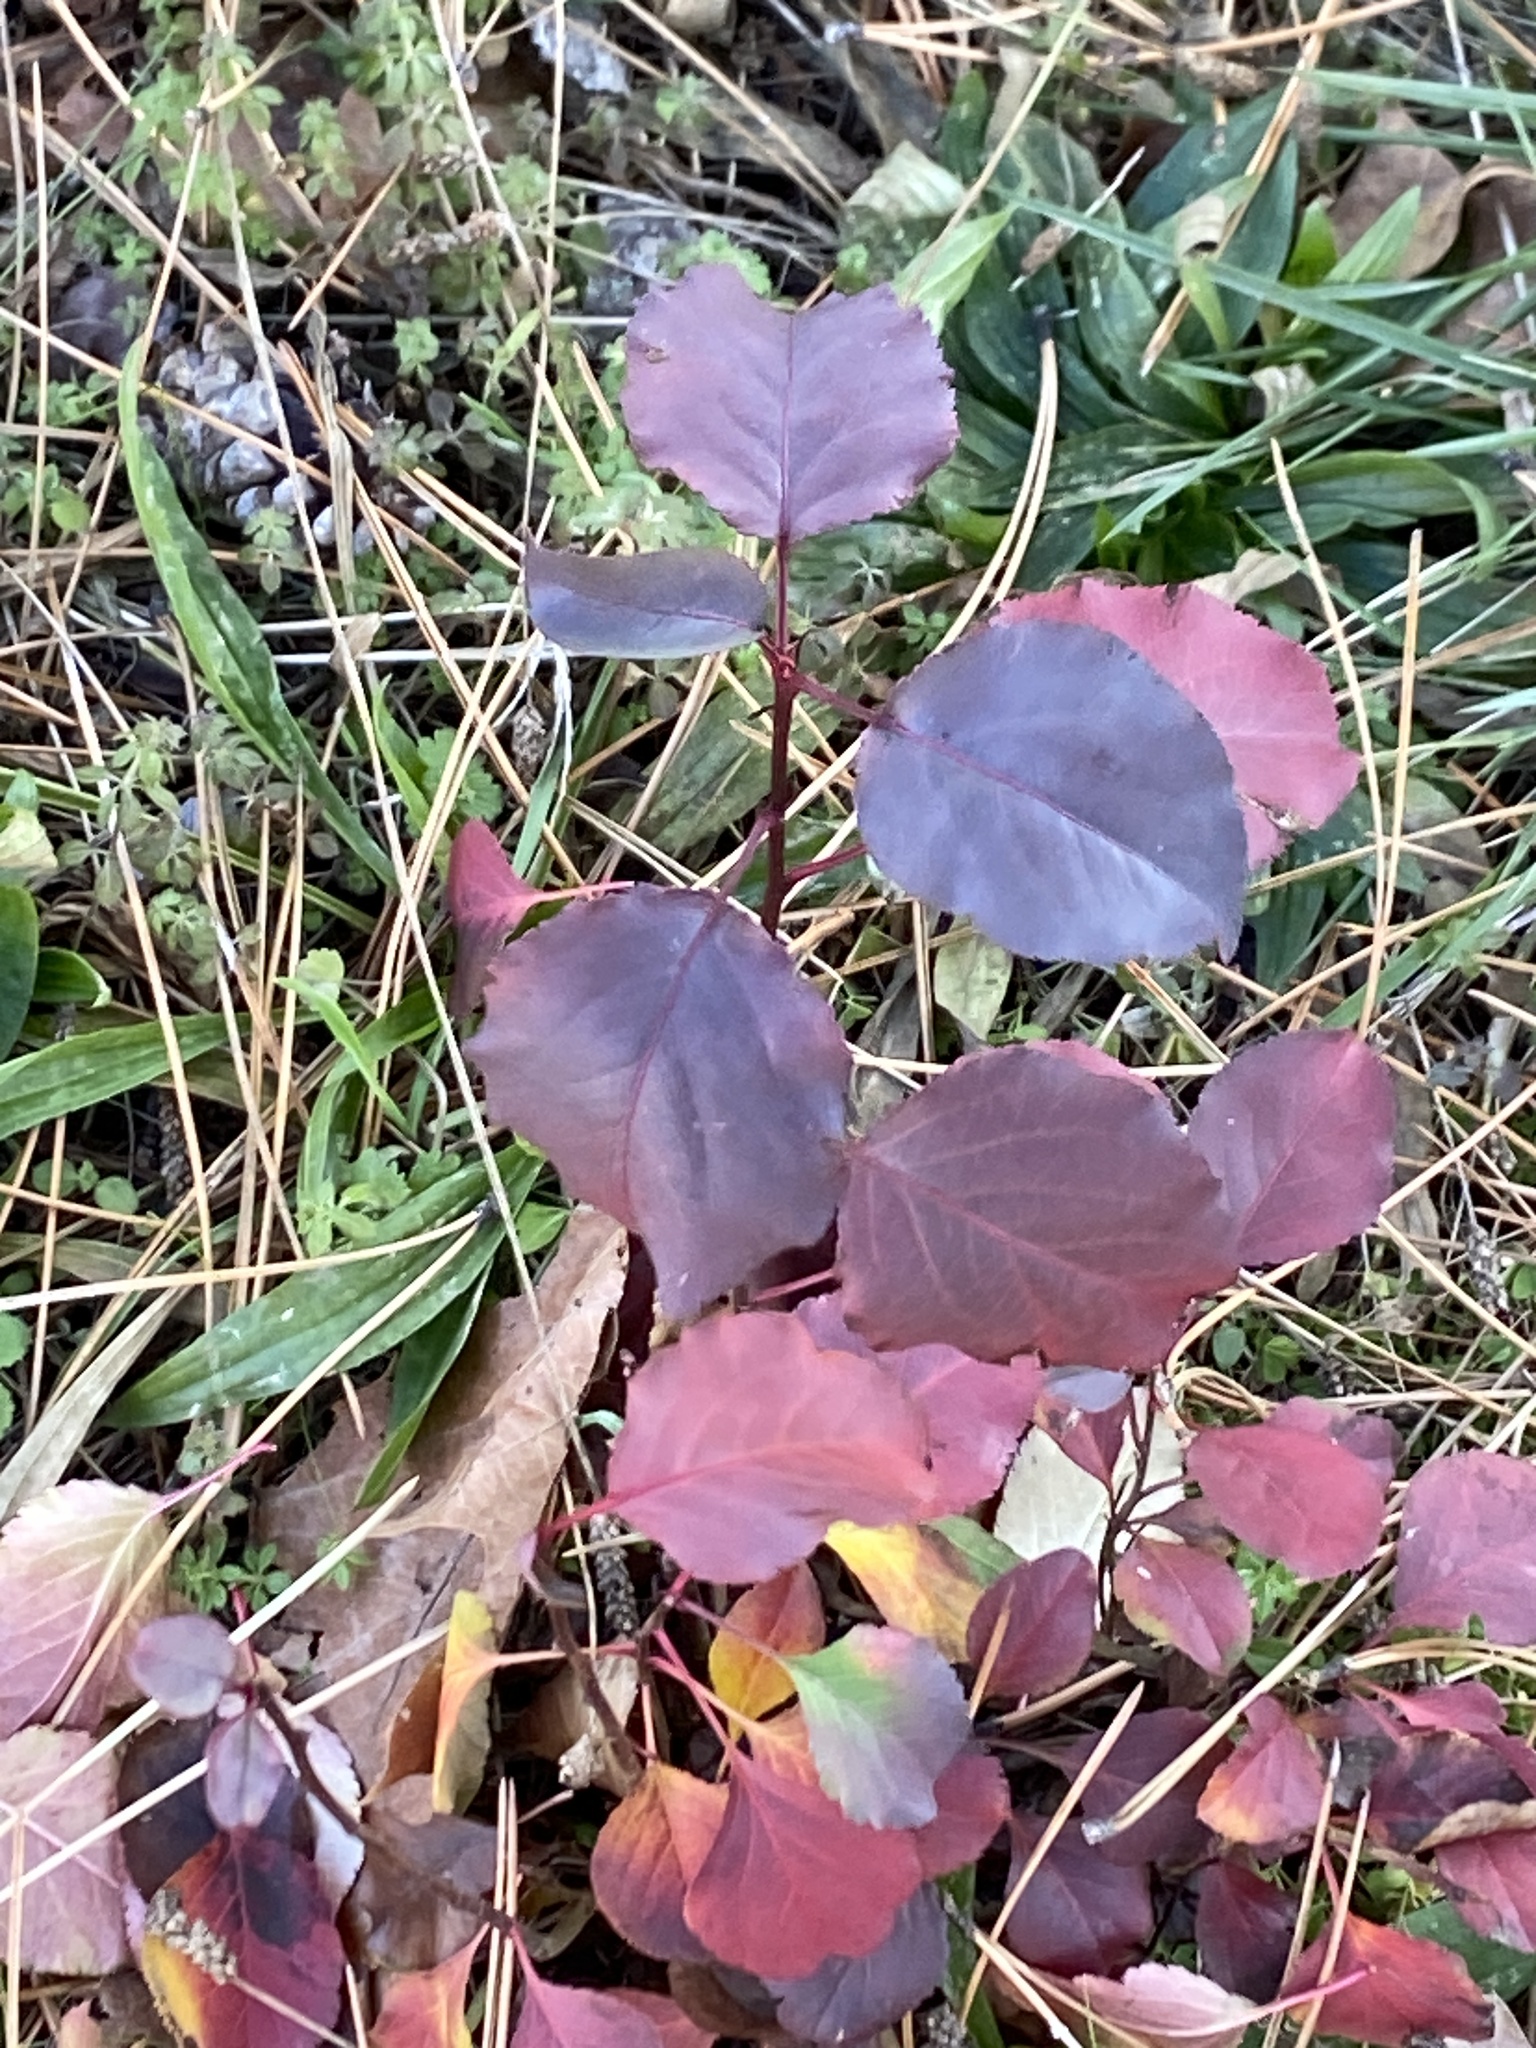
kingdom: Plantae
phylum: Tracheophyta
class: Magnoliopsida
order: Rosales
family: Rosaceae
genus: Pyrus
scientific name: Pyrus calleryana
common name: Callery pear
